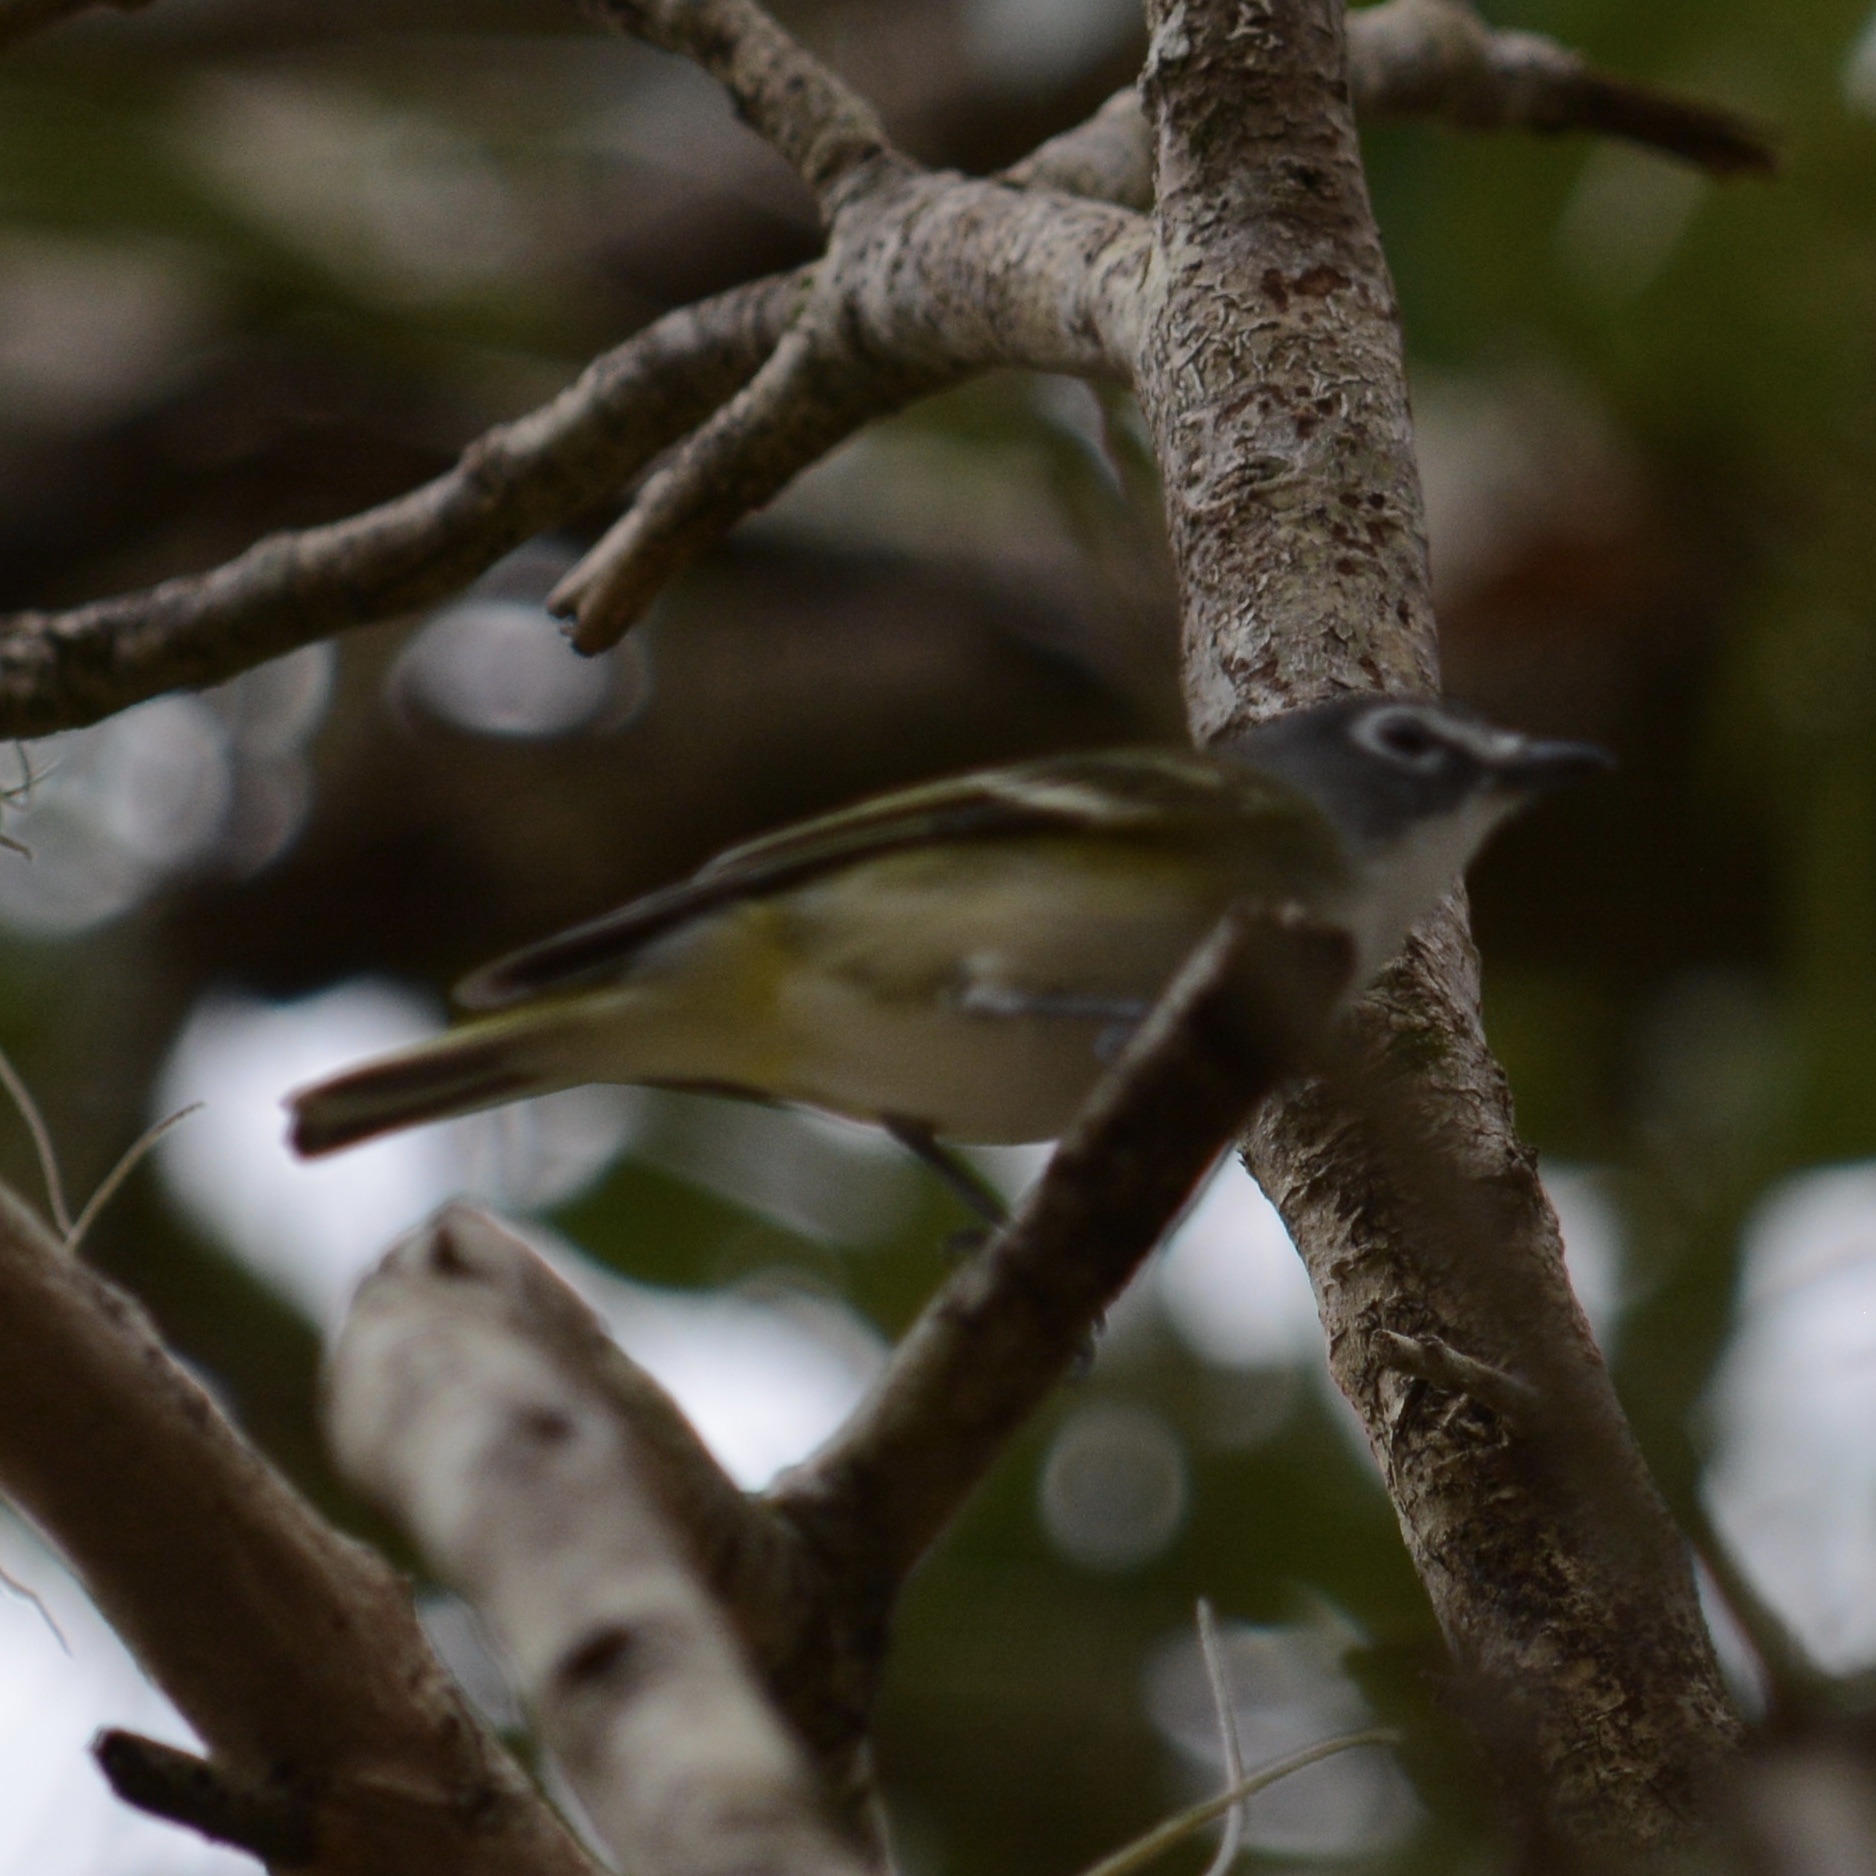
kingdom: Animalia
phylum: Chordata
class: Aves
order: Passeriformes
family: Vireonidae
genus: Vireo
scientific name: Vireo solitarius
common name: Blue-headed vireo
